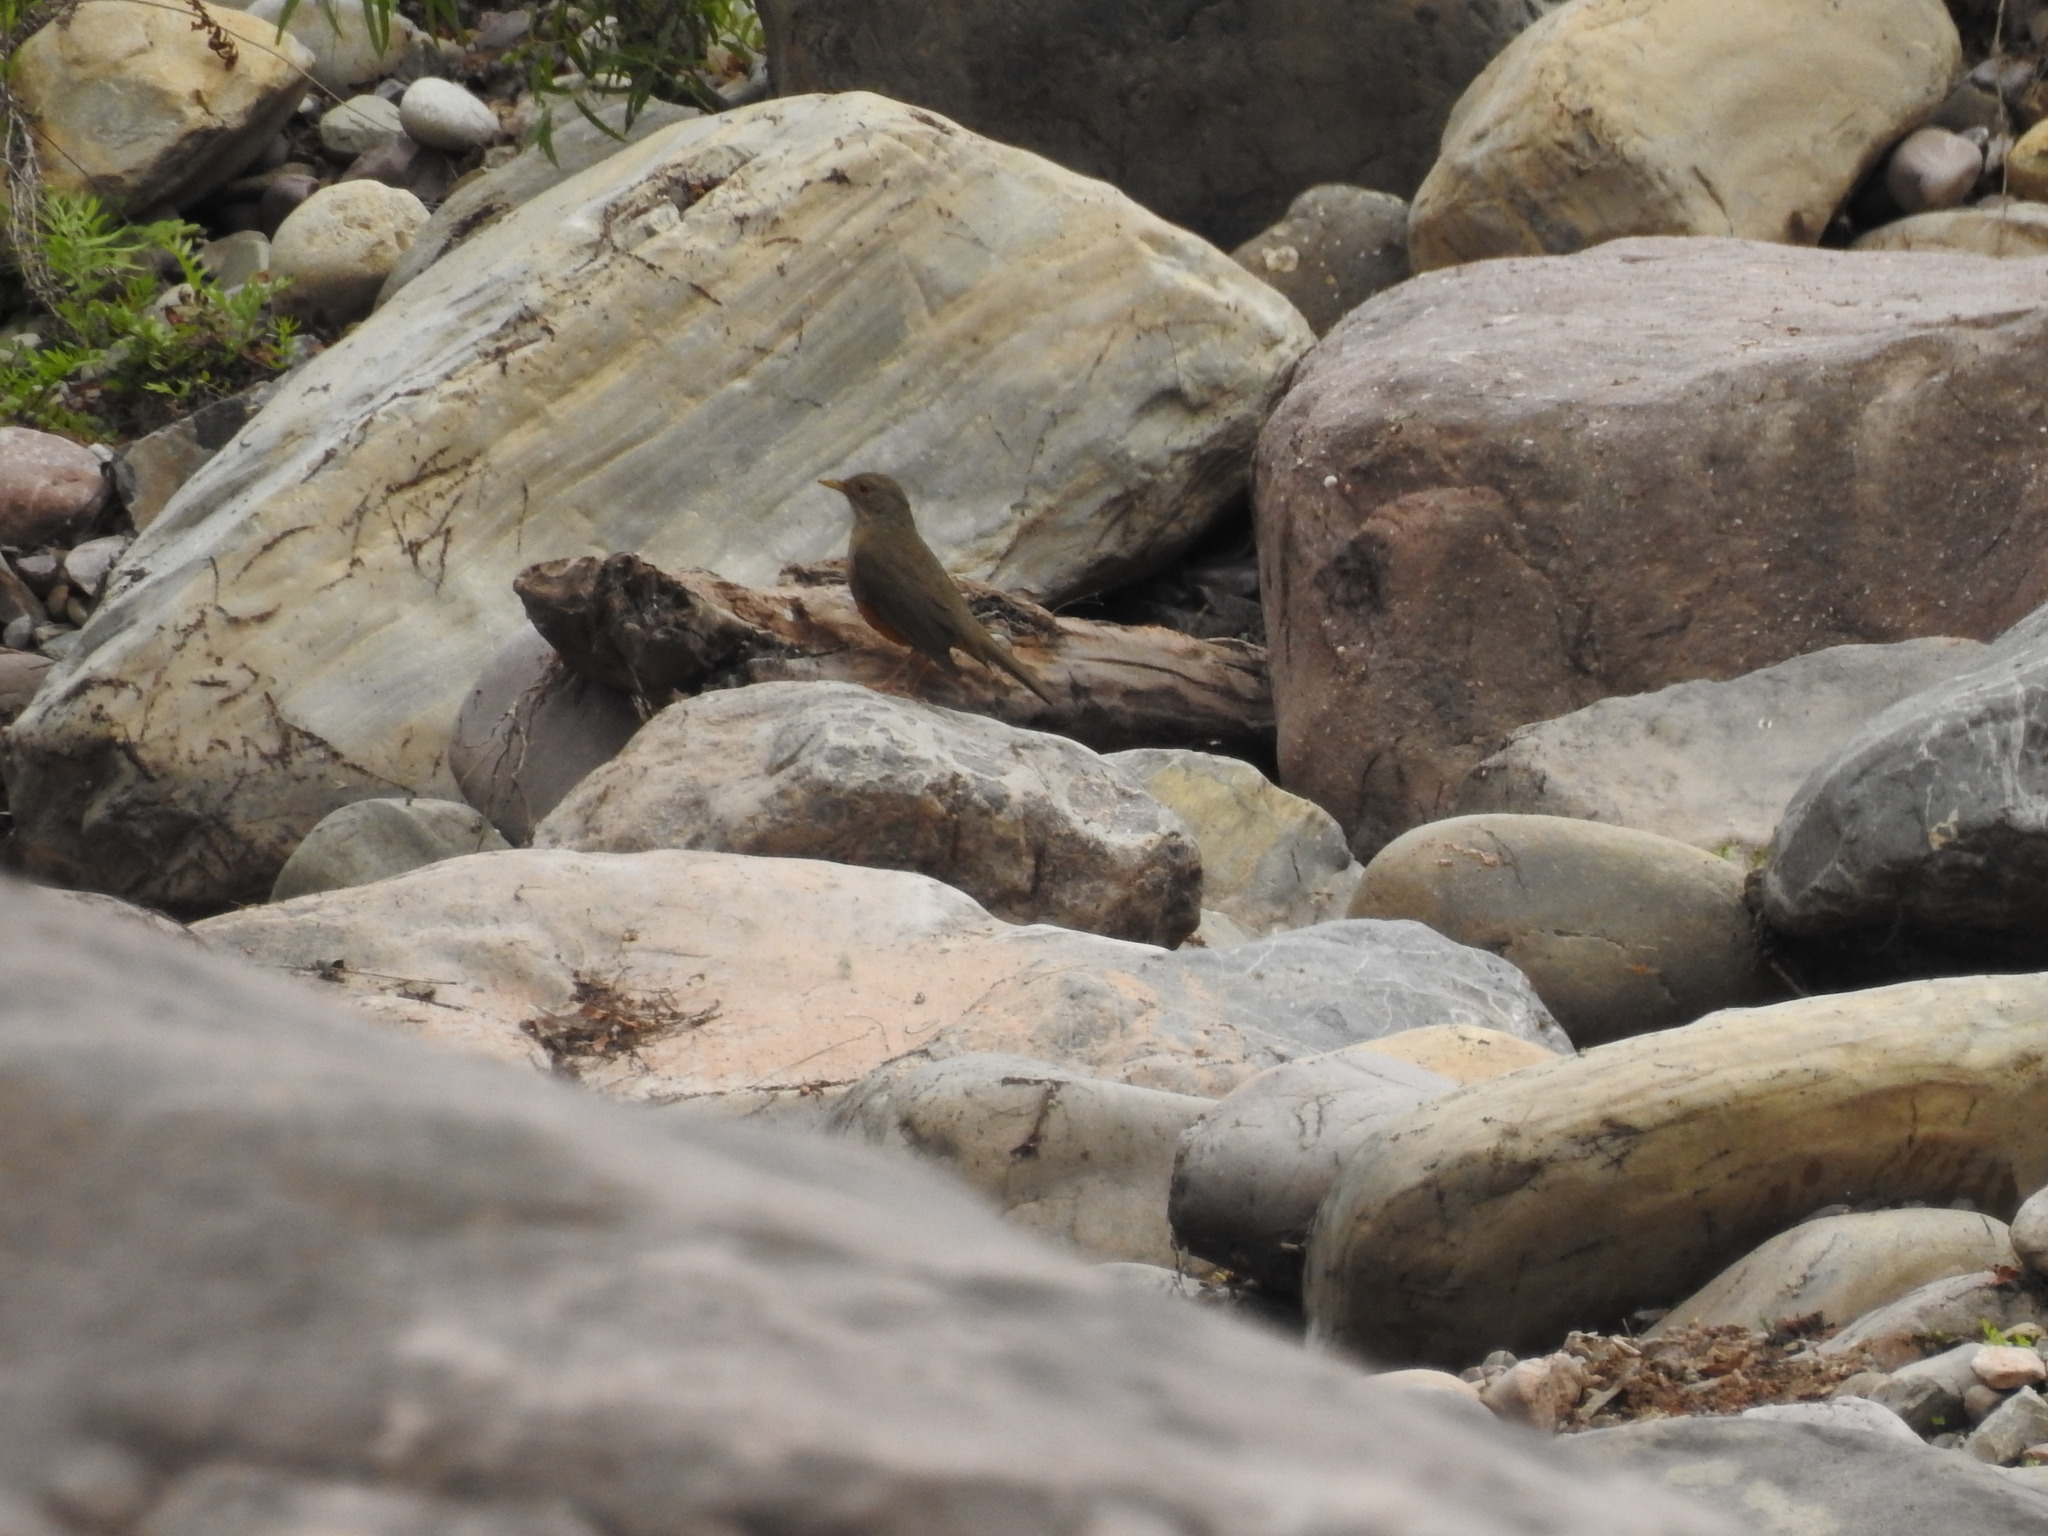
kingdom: Animalia
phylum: Chordata
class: Aves
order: Passeriformes
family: Turdidae
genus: Turdus
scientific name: Turdus rufiventris
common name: Rufous-bellied thrush
